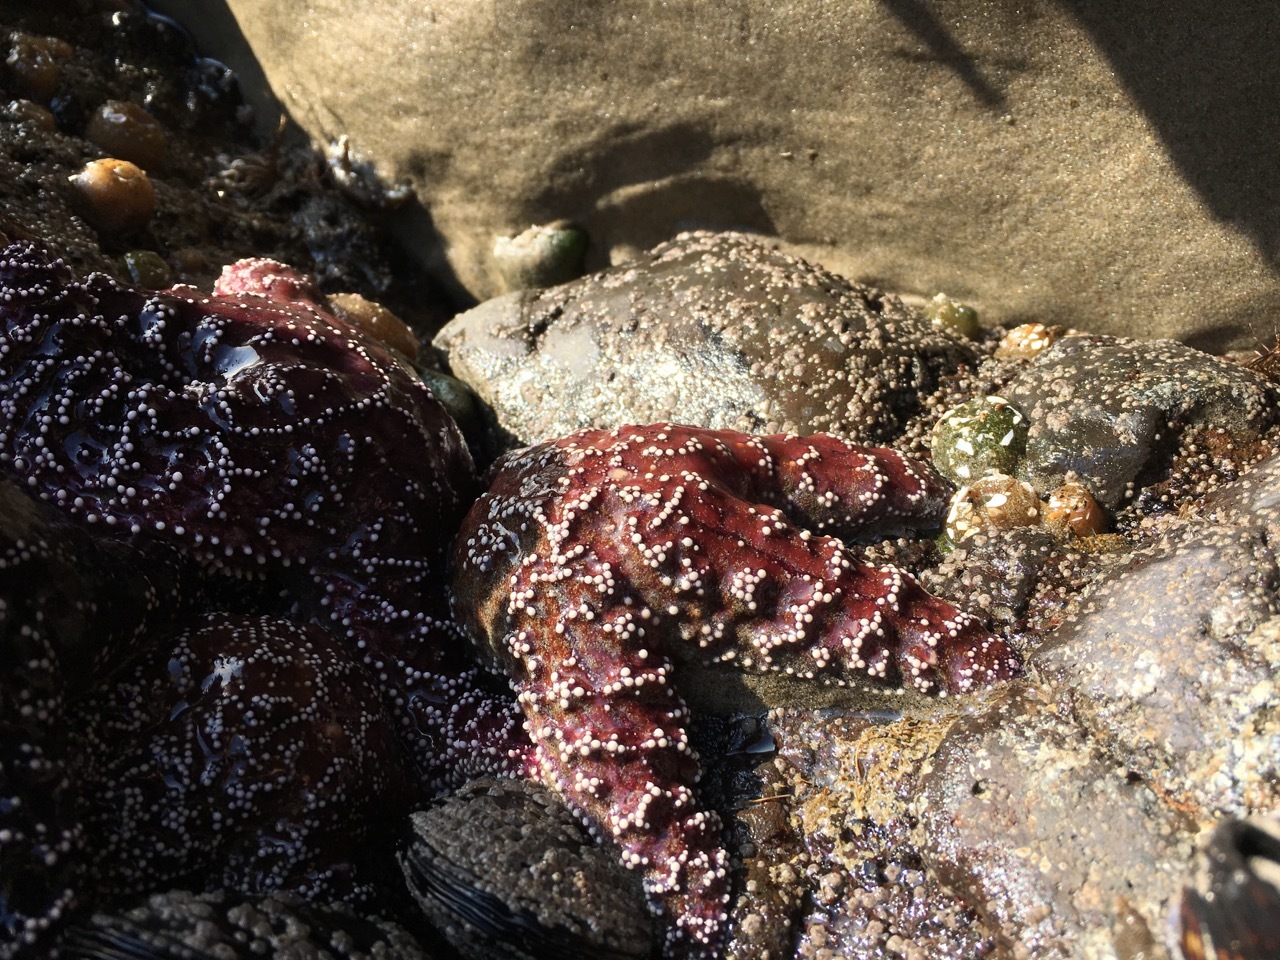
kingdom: Animalia
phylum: Echinodermata
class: Asteroidea
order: Forcipulatida
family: Asteriidae
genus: Pisaster
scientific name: Pisaster ochraceus
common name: Ochre stars
